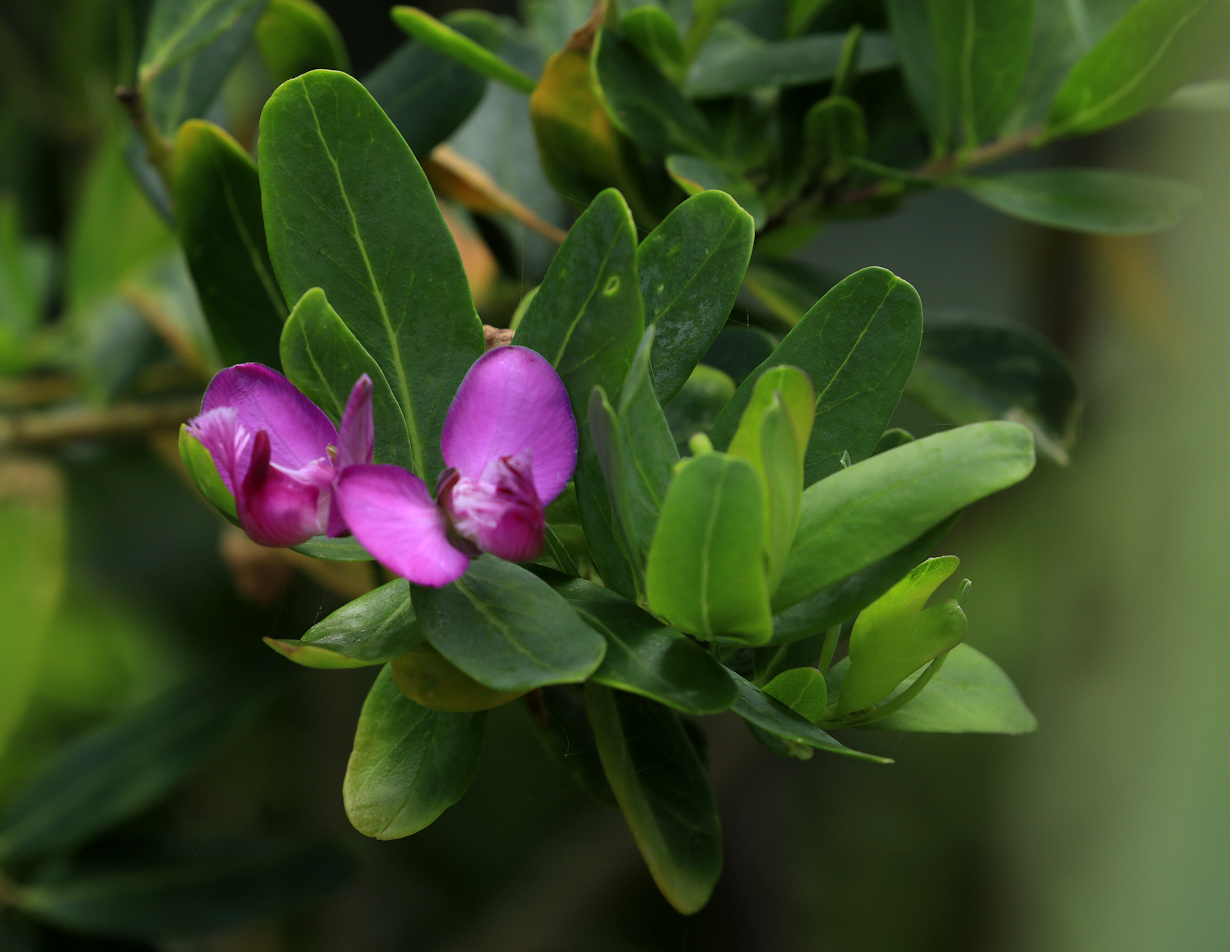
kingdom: Plantae
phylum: Tracheophyta
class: Magnoliopsida
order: Fabales
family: Polygalaceae
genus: Polygala
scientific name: Polygala myrtifolia
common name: Myrtle-leaf milkwort
